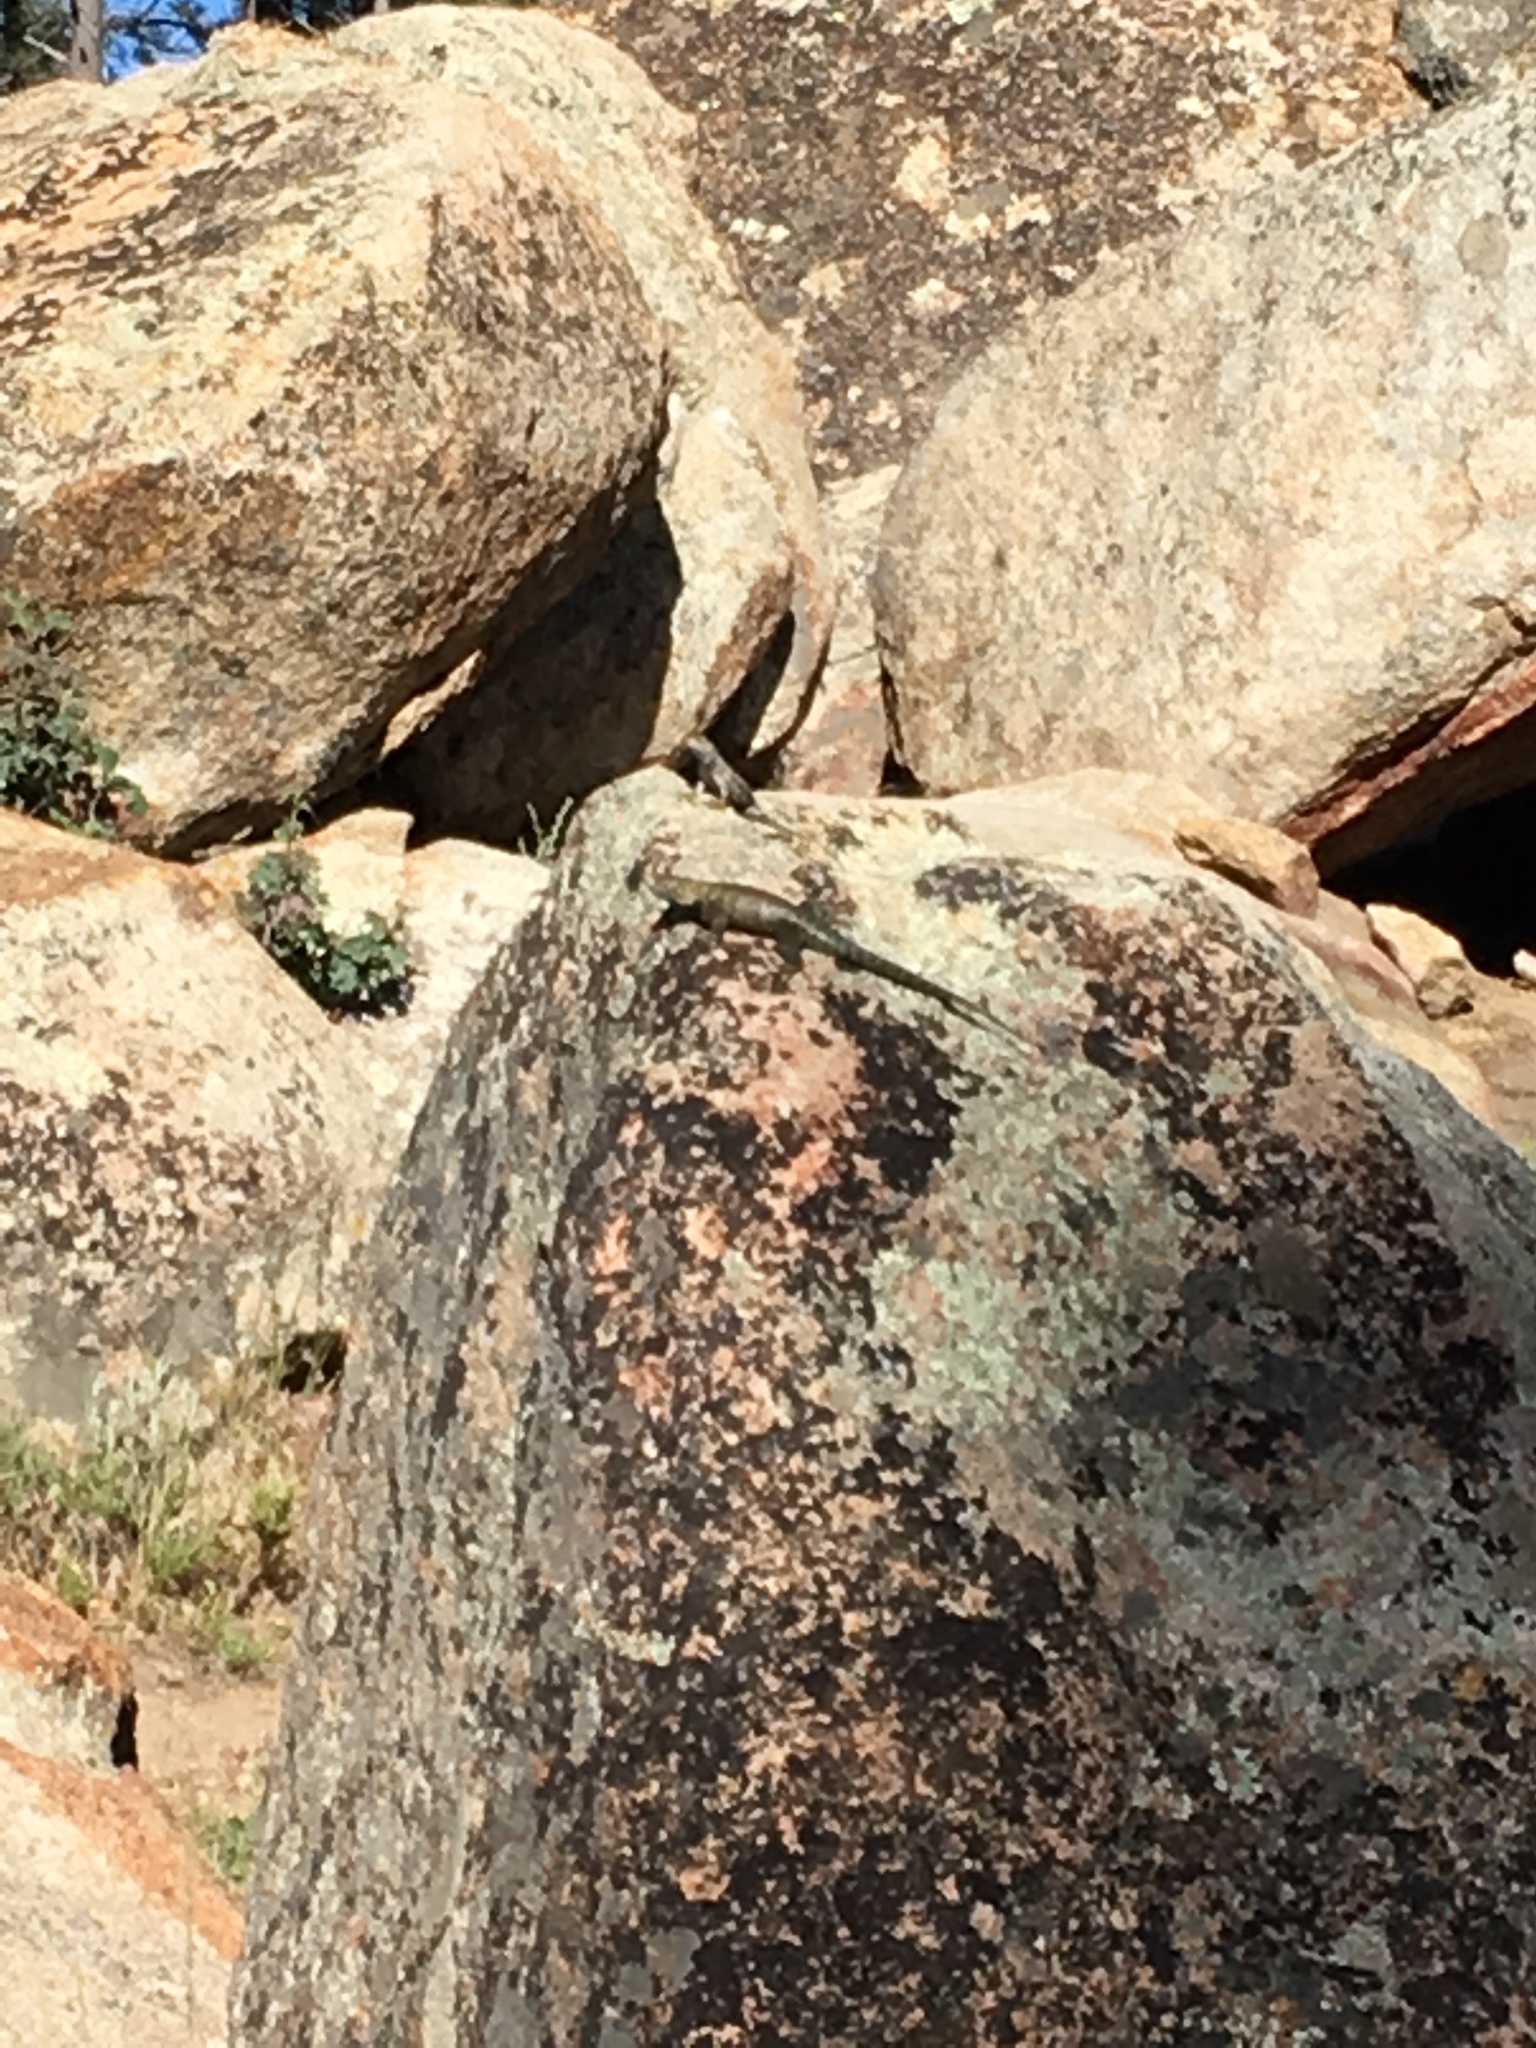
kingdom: Animalia
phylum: Chordata
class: Squamata
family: Phrynosomatidae
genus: Sceloporus
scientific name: Sceloporus orcutti
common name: Granite spiny lizard
